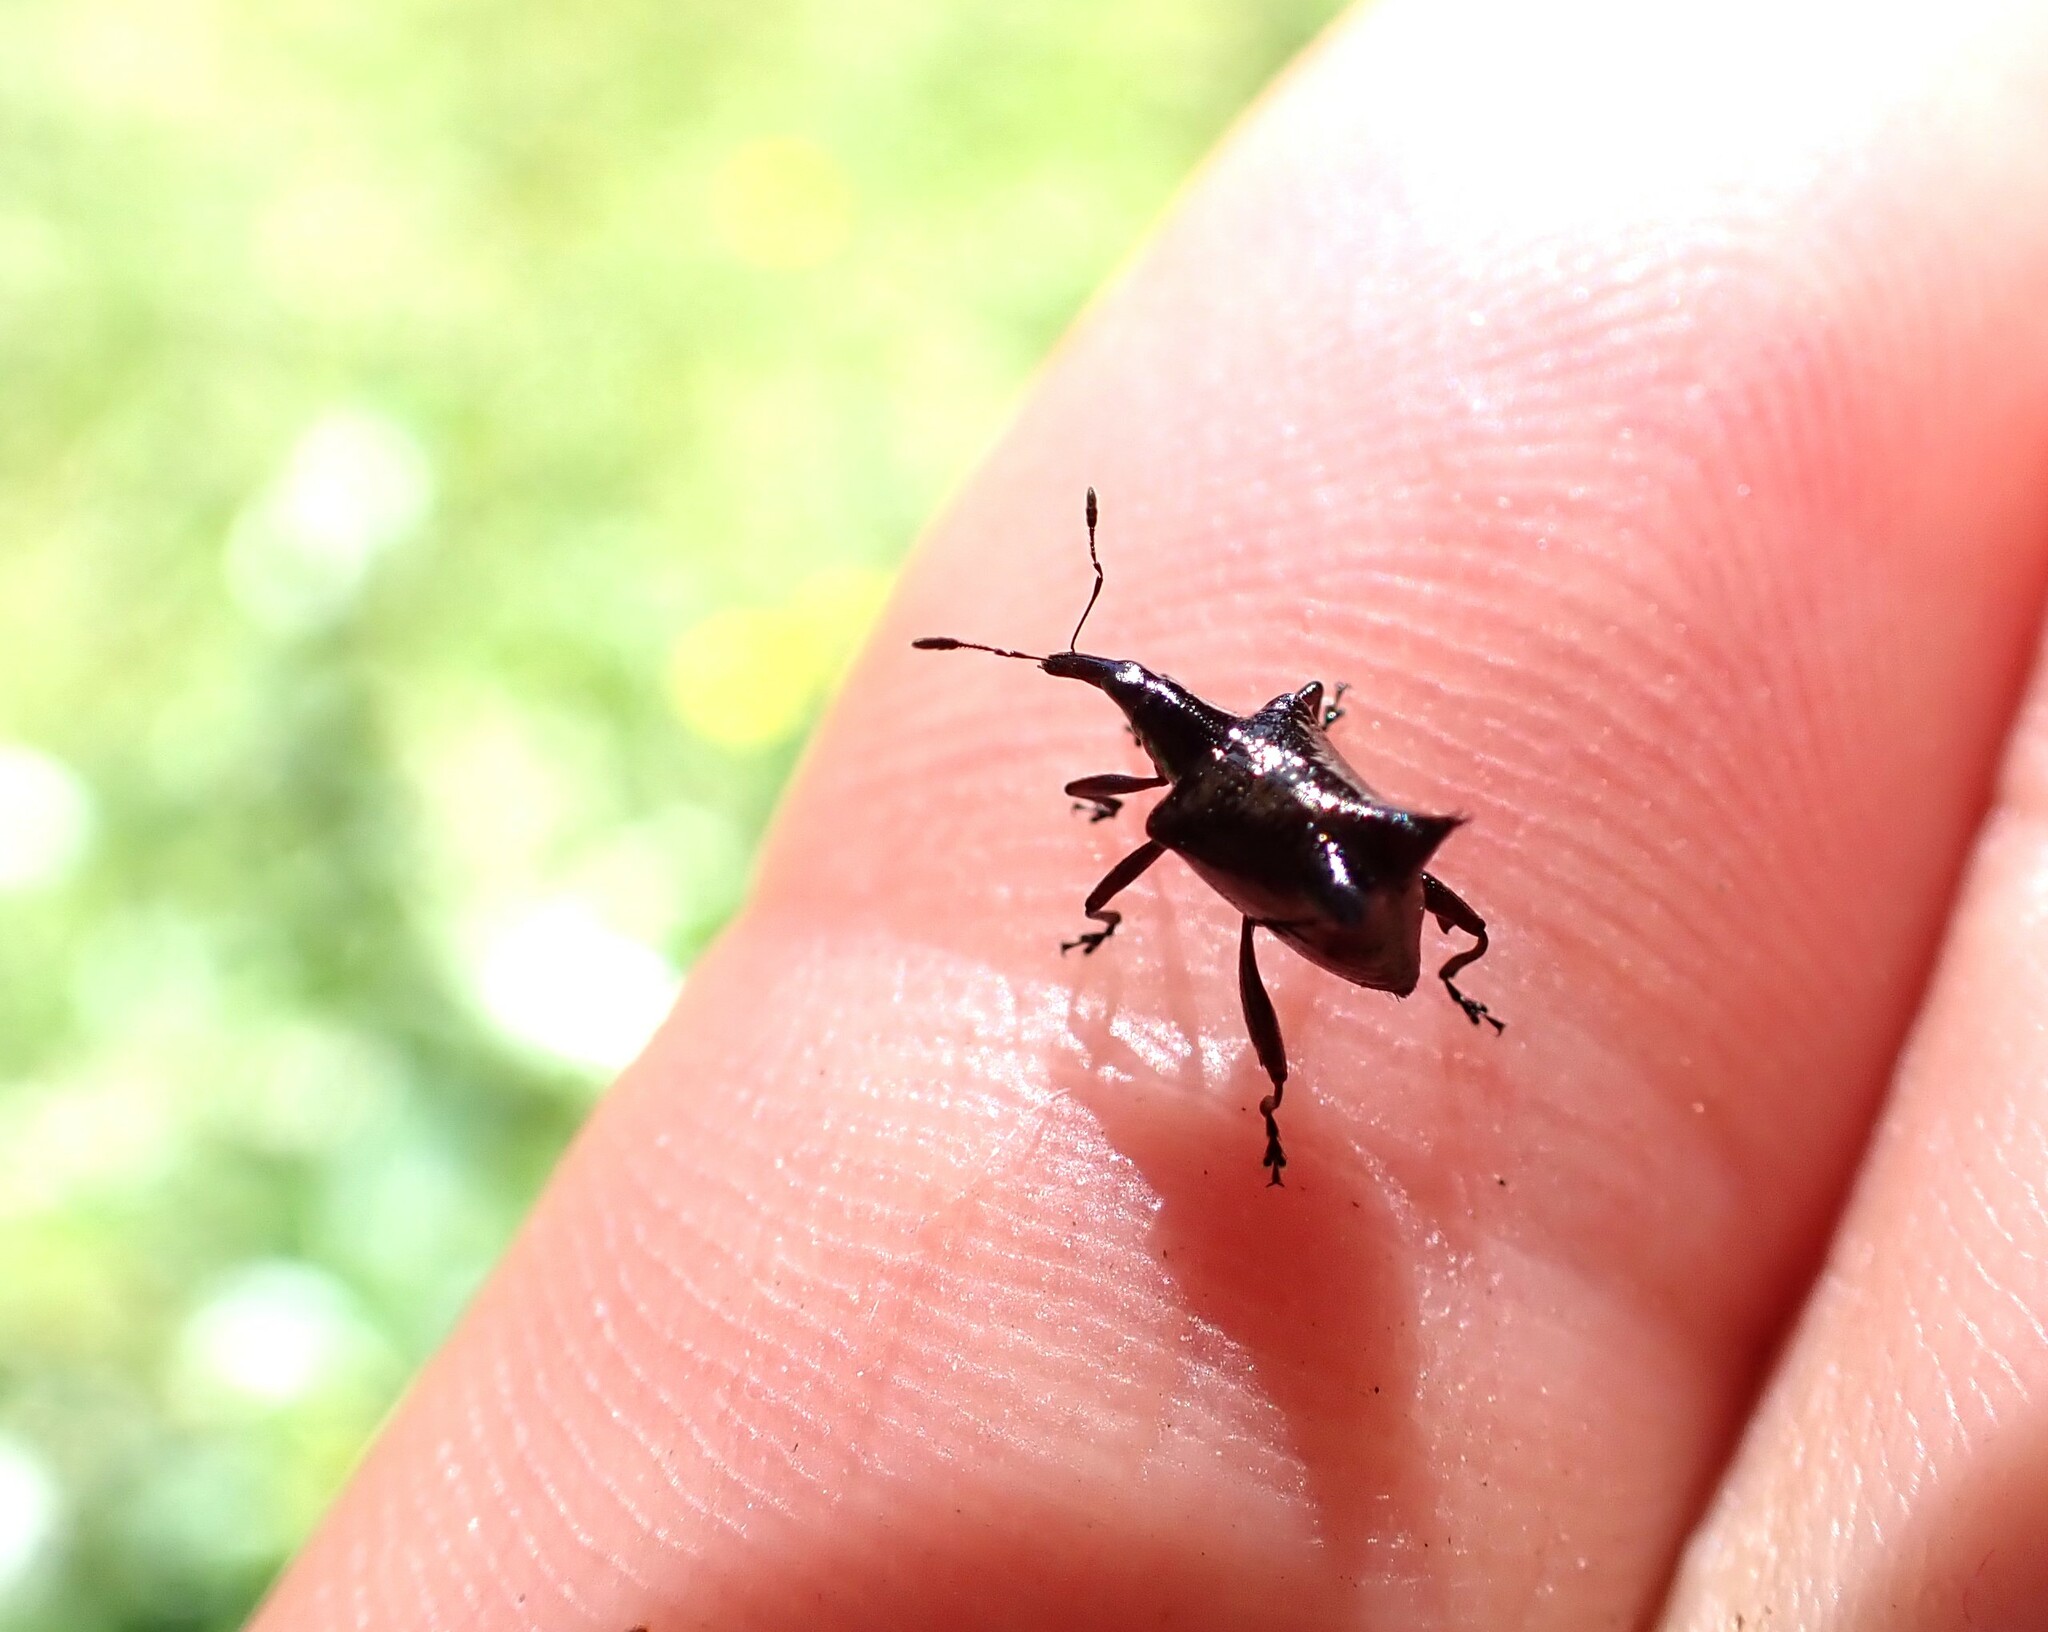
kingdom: Animalia
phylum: Arthropoda
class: Insecta
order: Coleoptera
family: Curculionidae
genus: Scolopterus
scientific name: Scolopterus penicillatus
